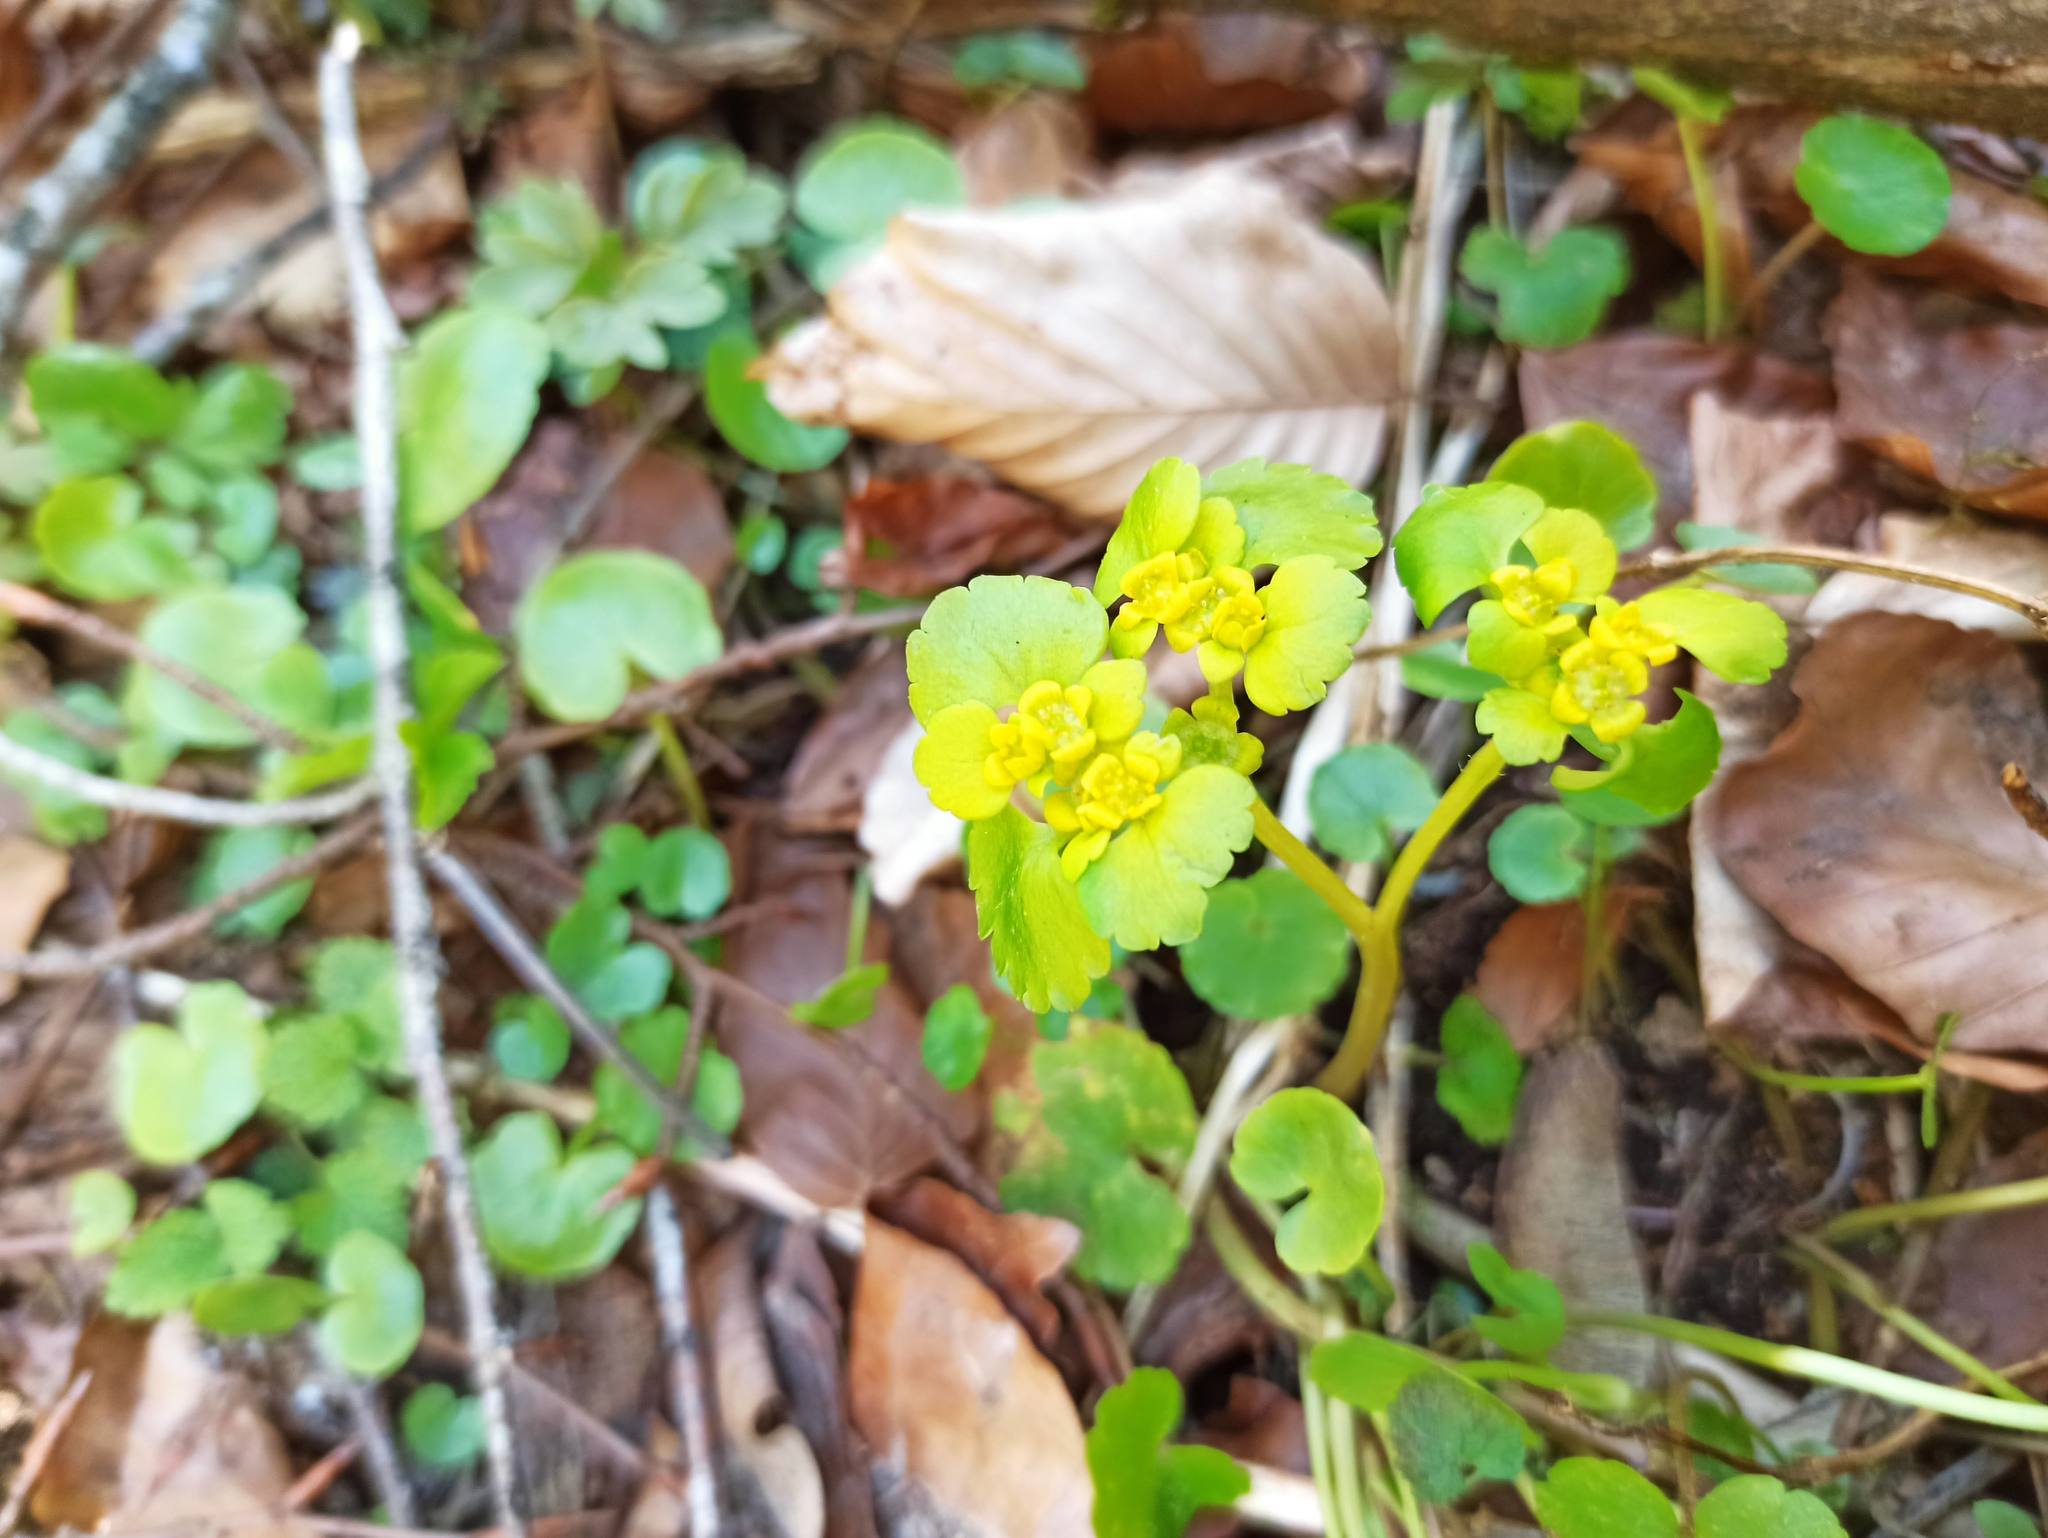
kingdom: Plantae
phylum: Tracheophyta
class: Magnoliopsida
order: Saxifragales
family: Saxifragaceae
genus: Chrysosplenium
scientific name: Chrysosplenium alternifolium
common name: Alternate-leaved golden-saxifrage
